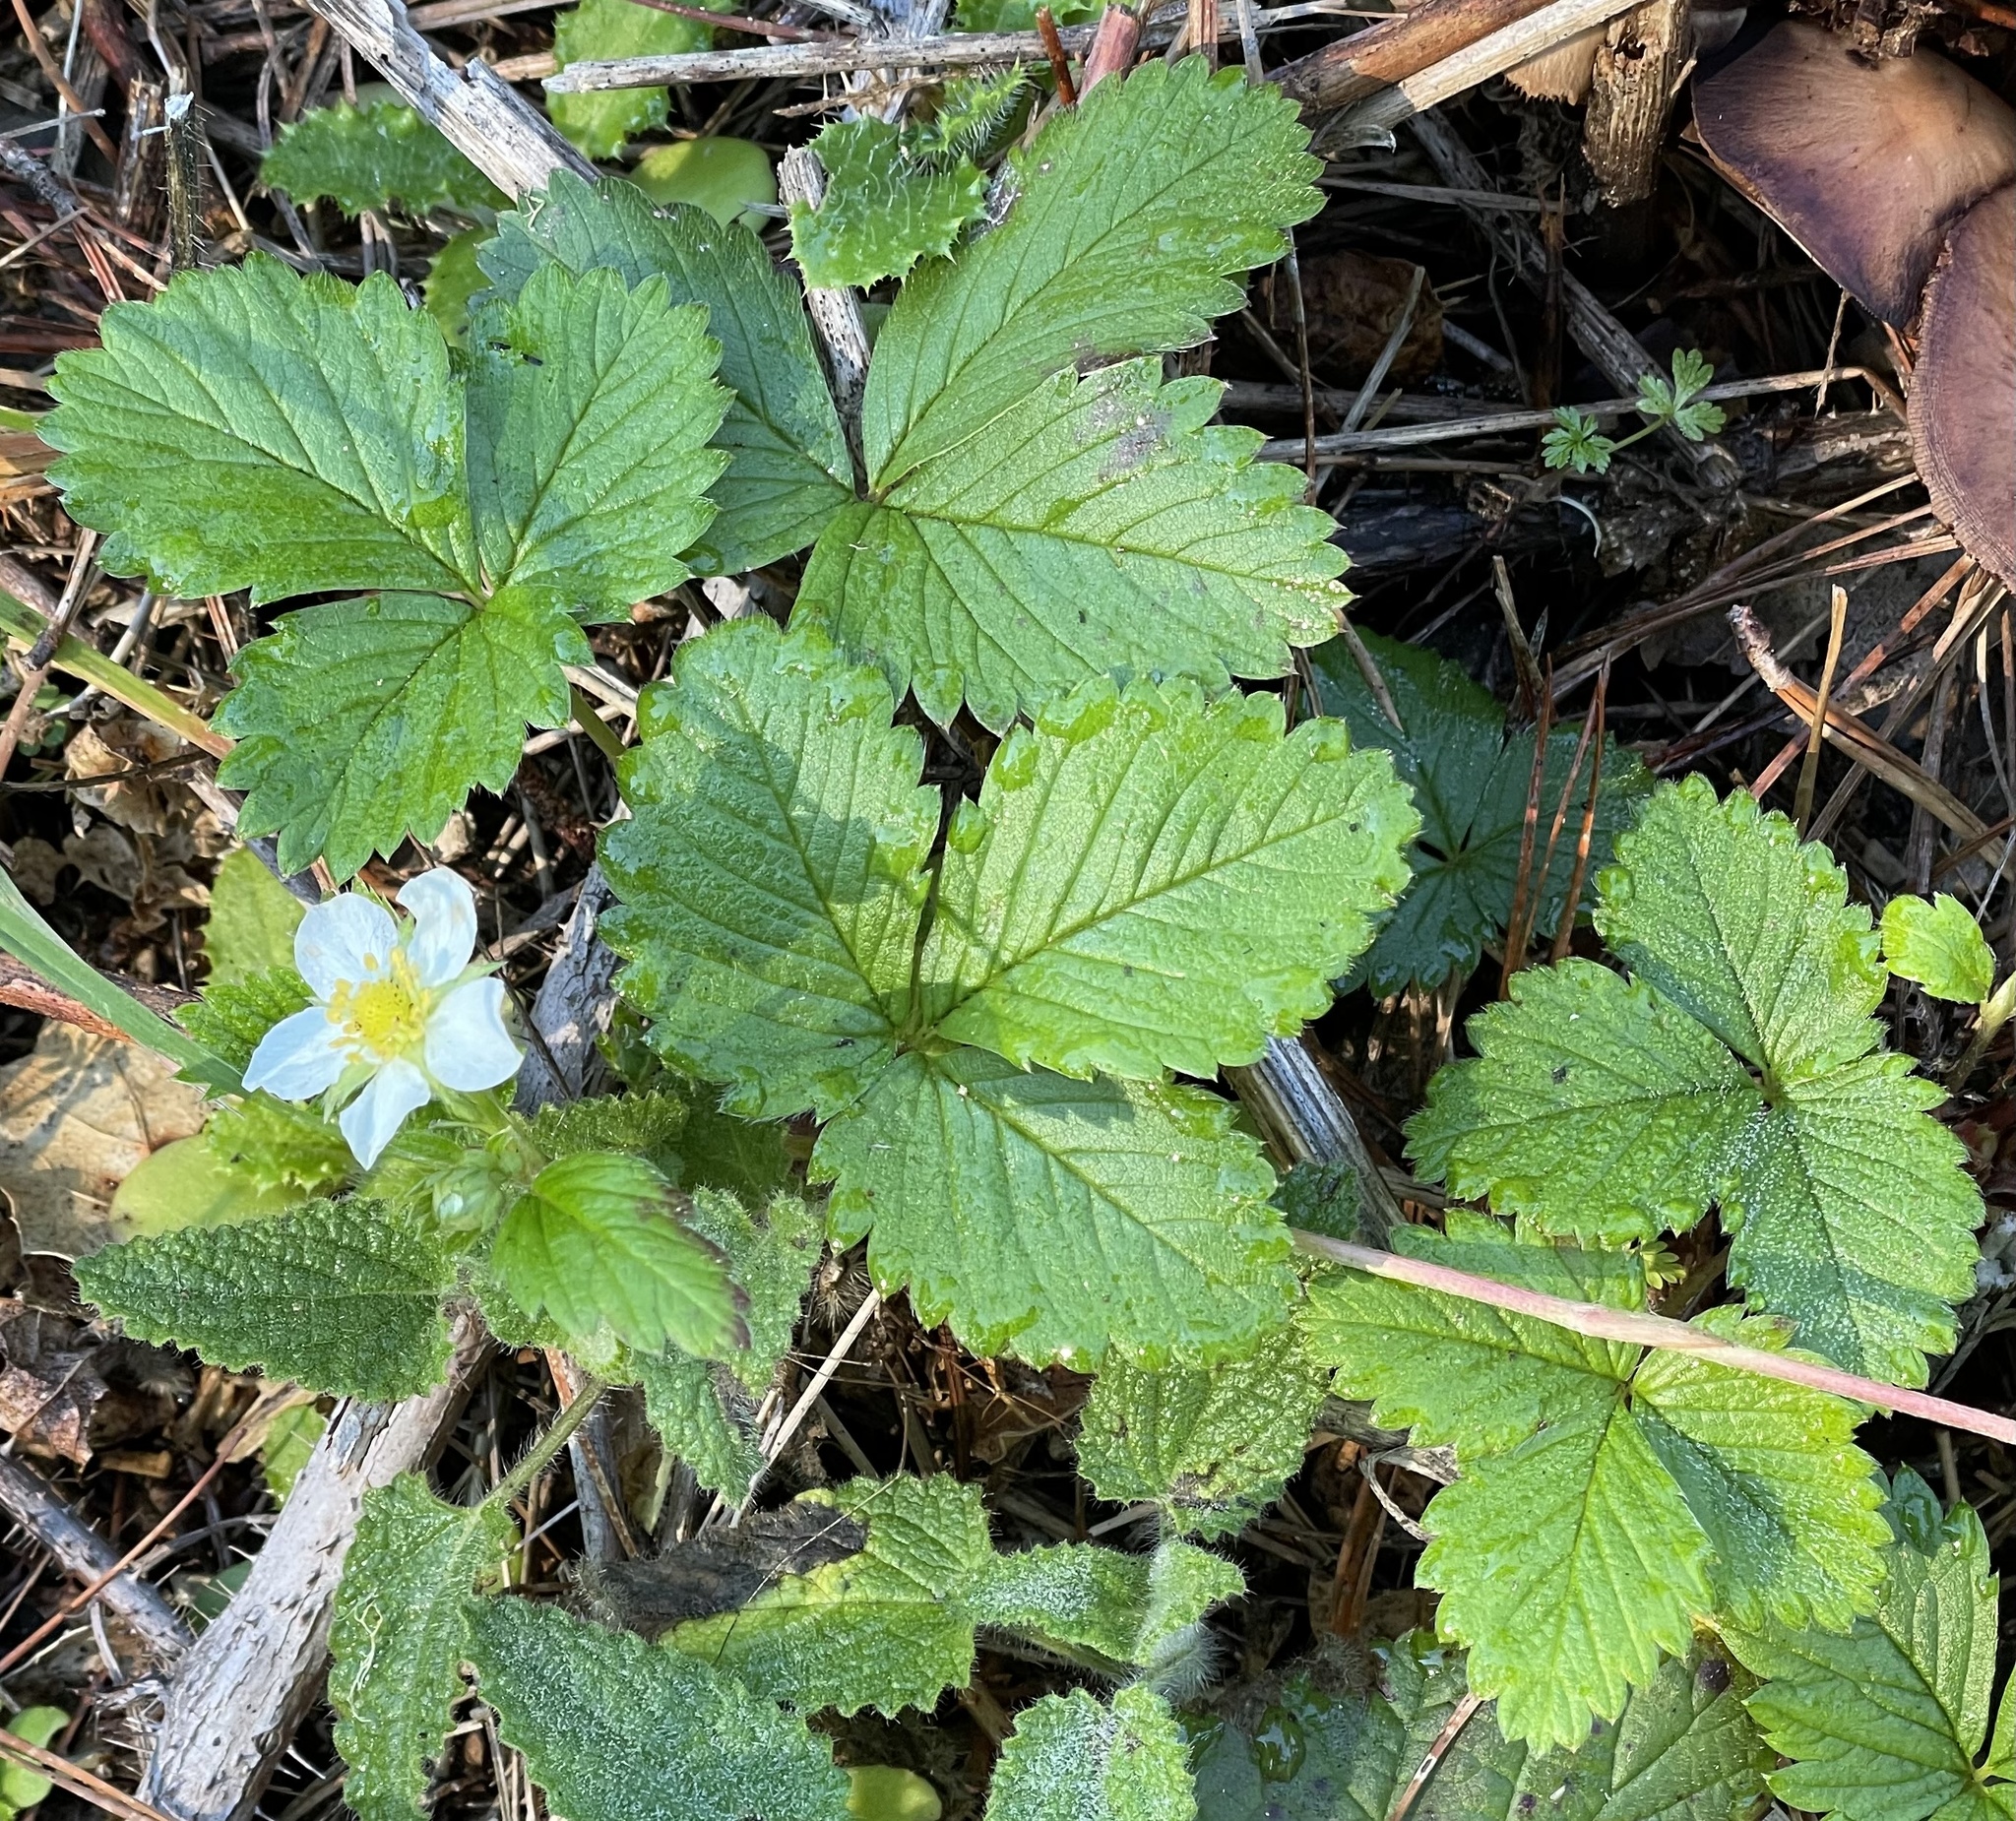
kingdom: Plantae
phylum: Tracheophyta
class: Magnoliopsida
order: Rosales
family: Rosaceae
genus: Fragaria
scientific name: Fragaria vesca
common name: Wild strawberry
